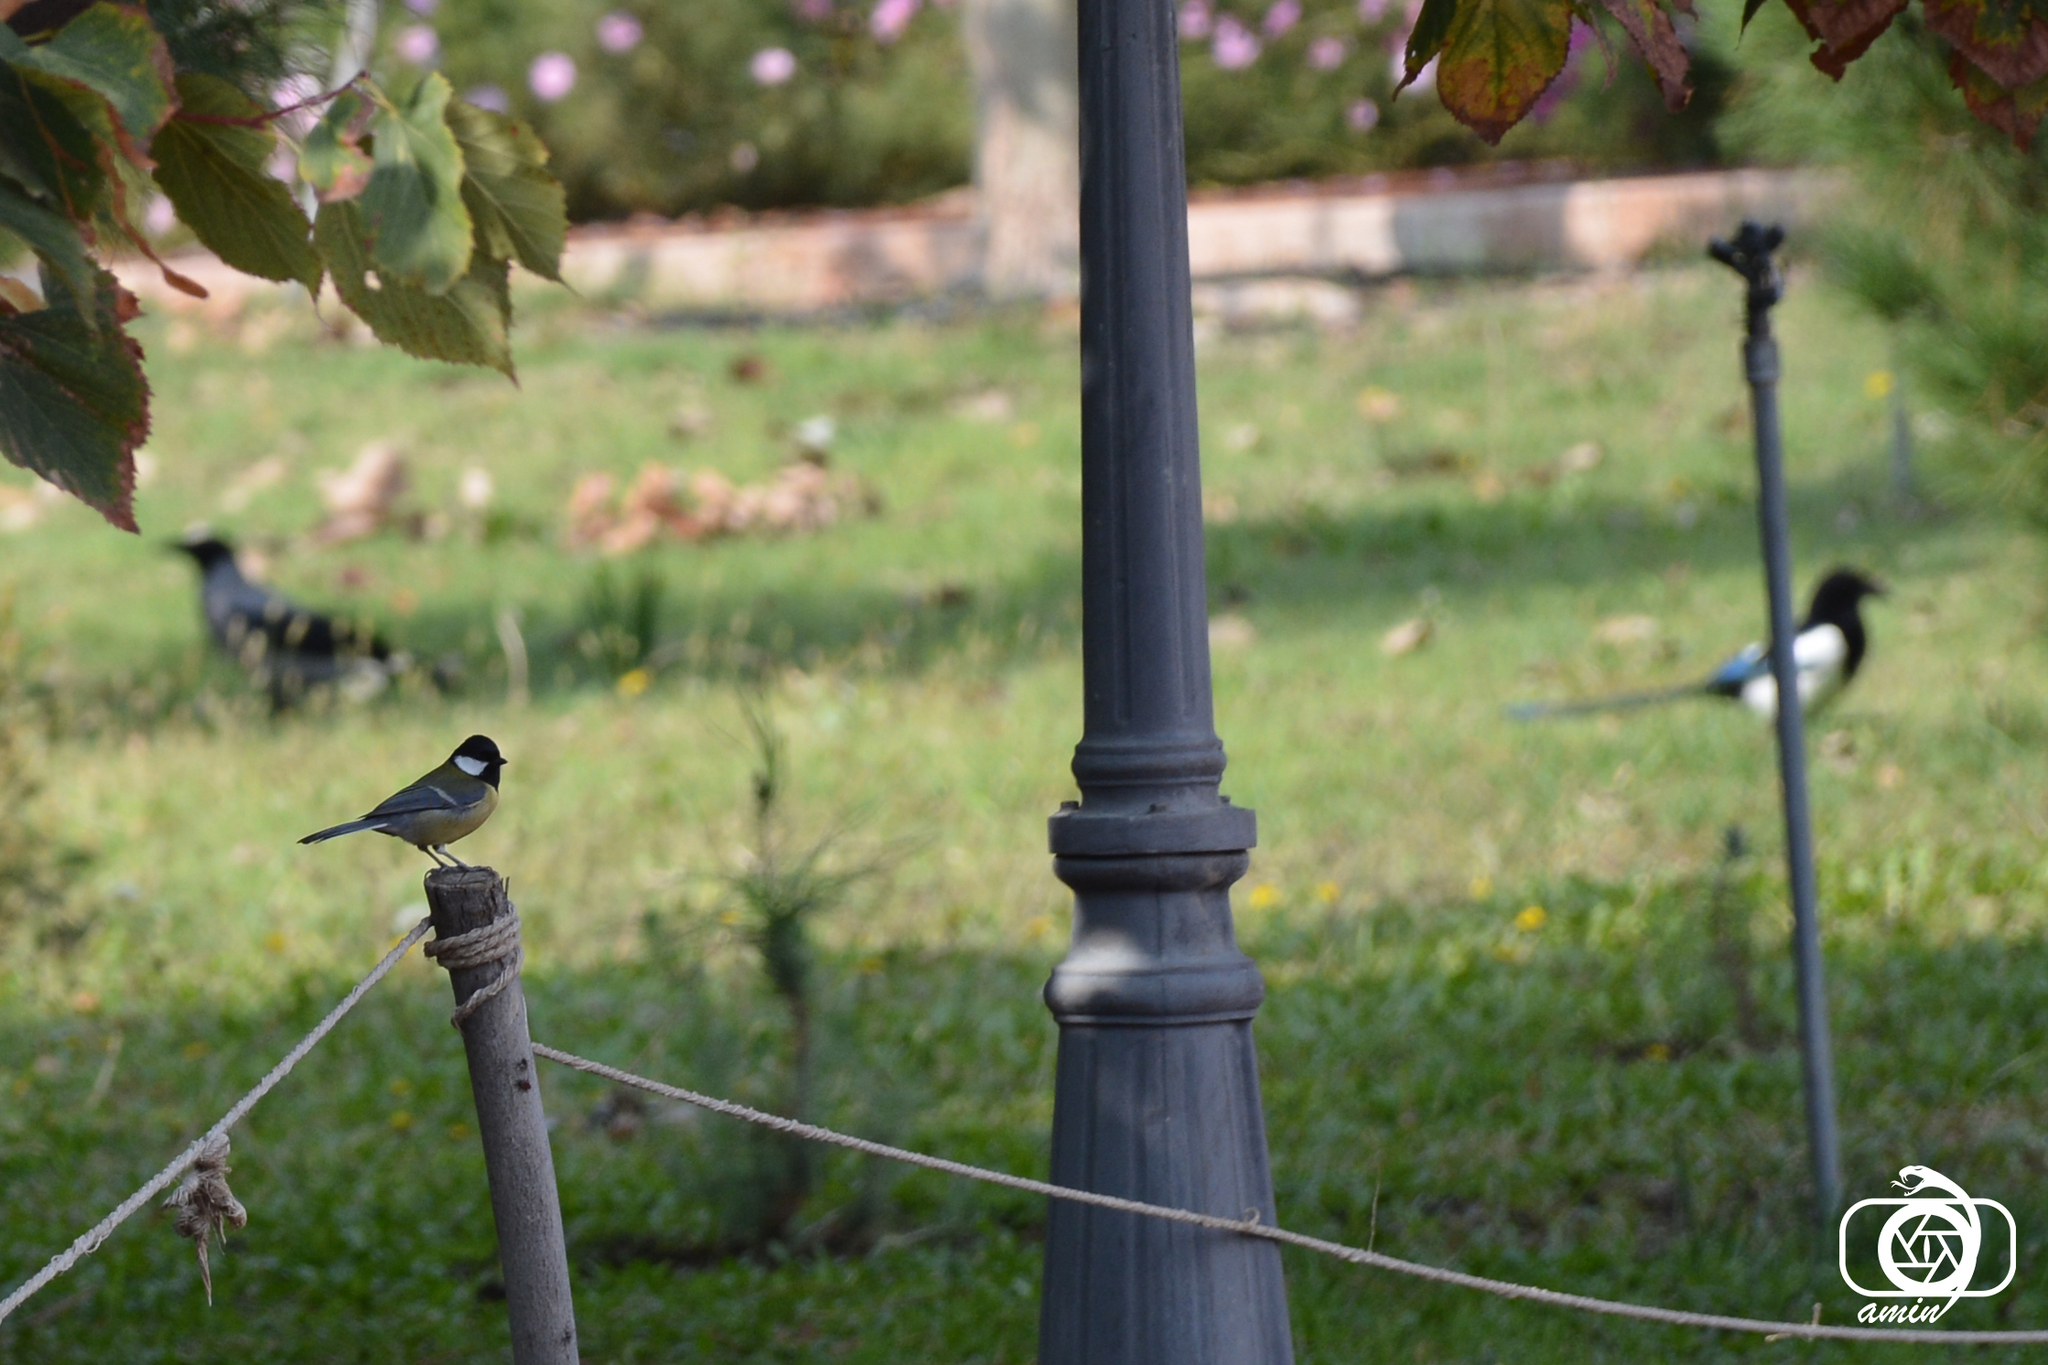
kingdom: Animalia
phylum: Chordata
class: Aves
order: Passeriformes
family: Paridae
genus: Parus
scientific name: Parus major
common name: Great tit
